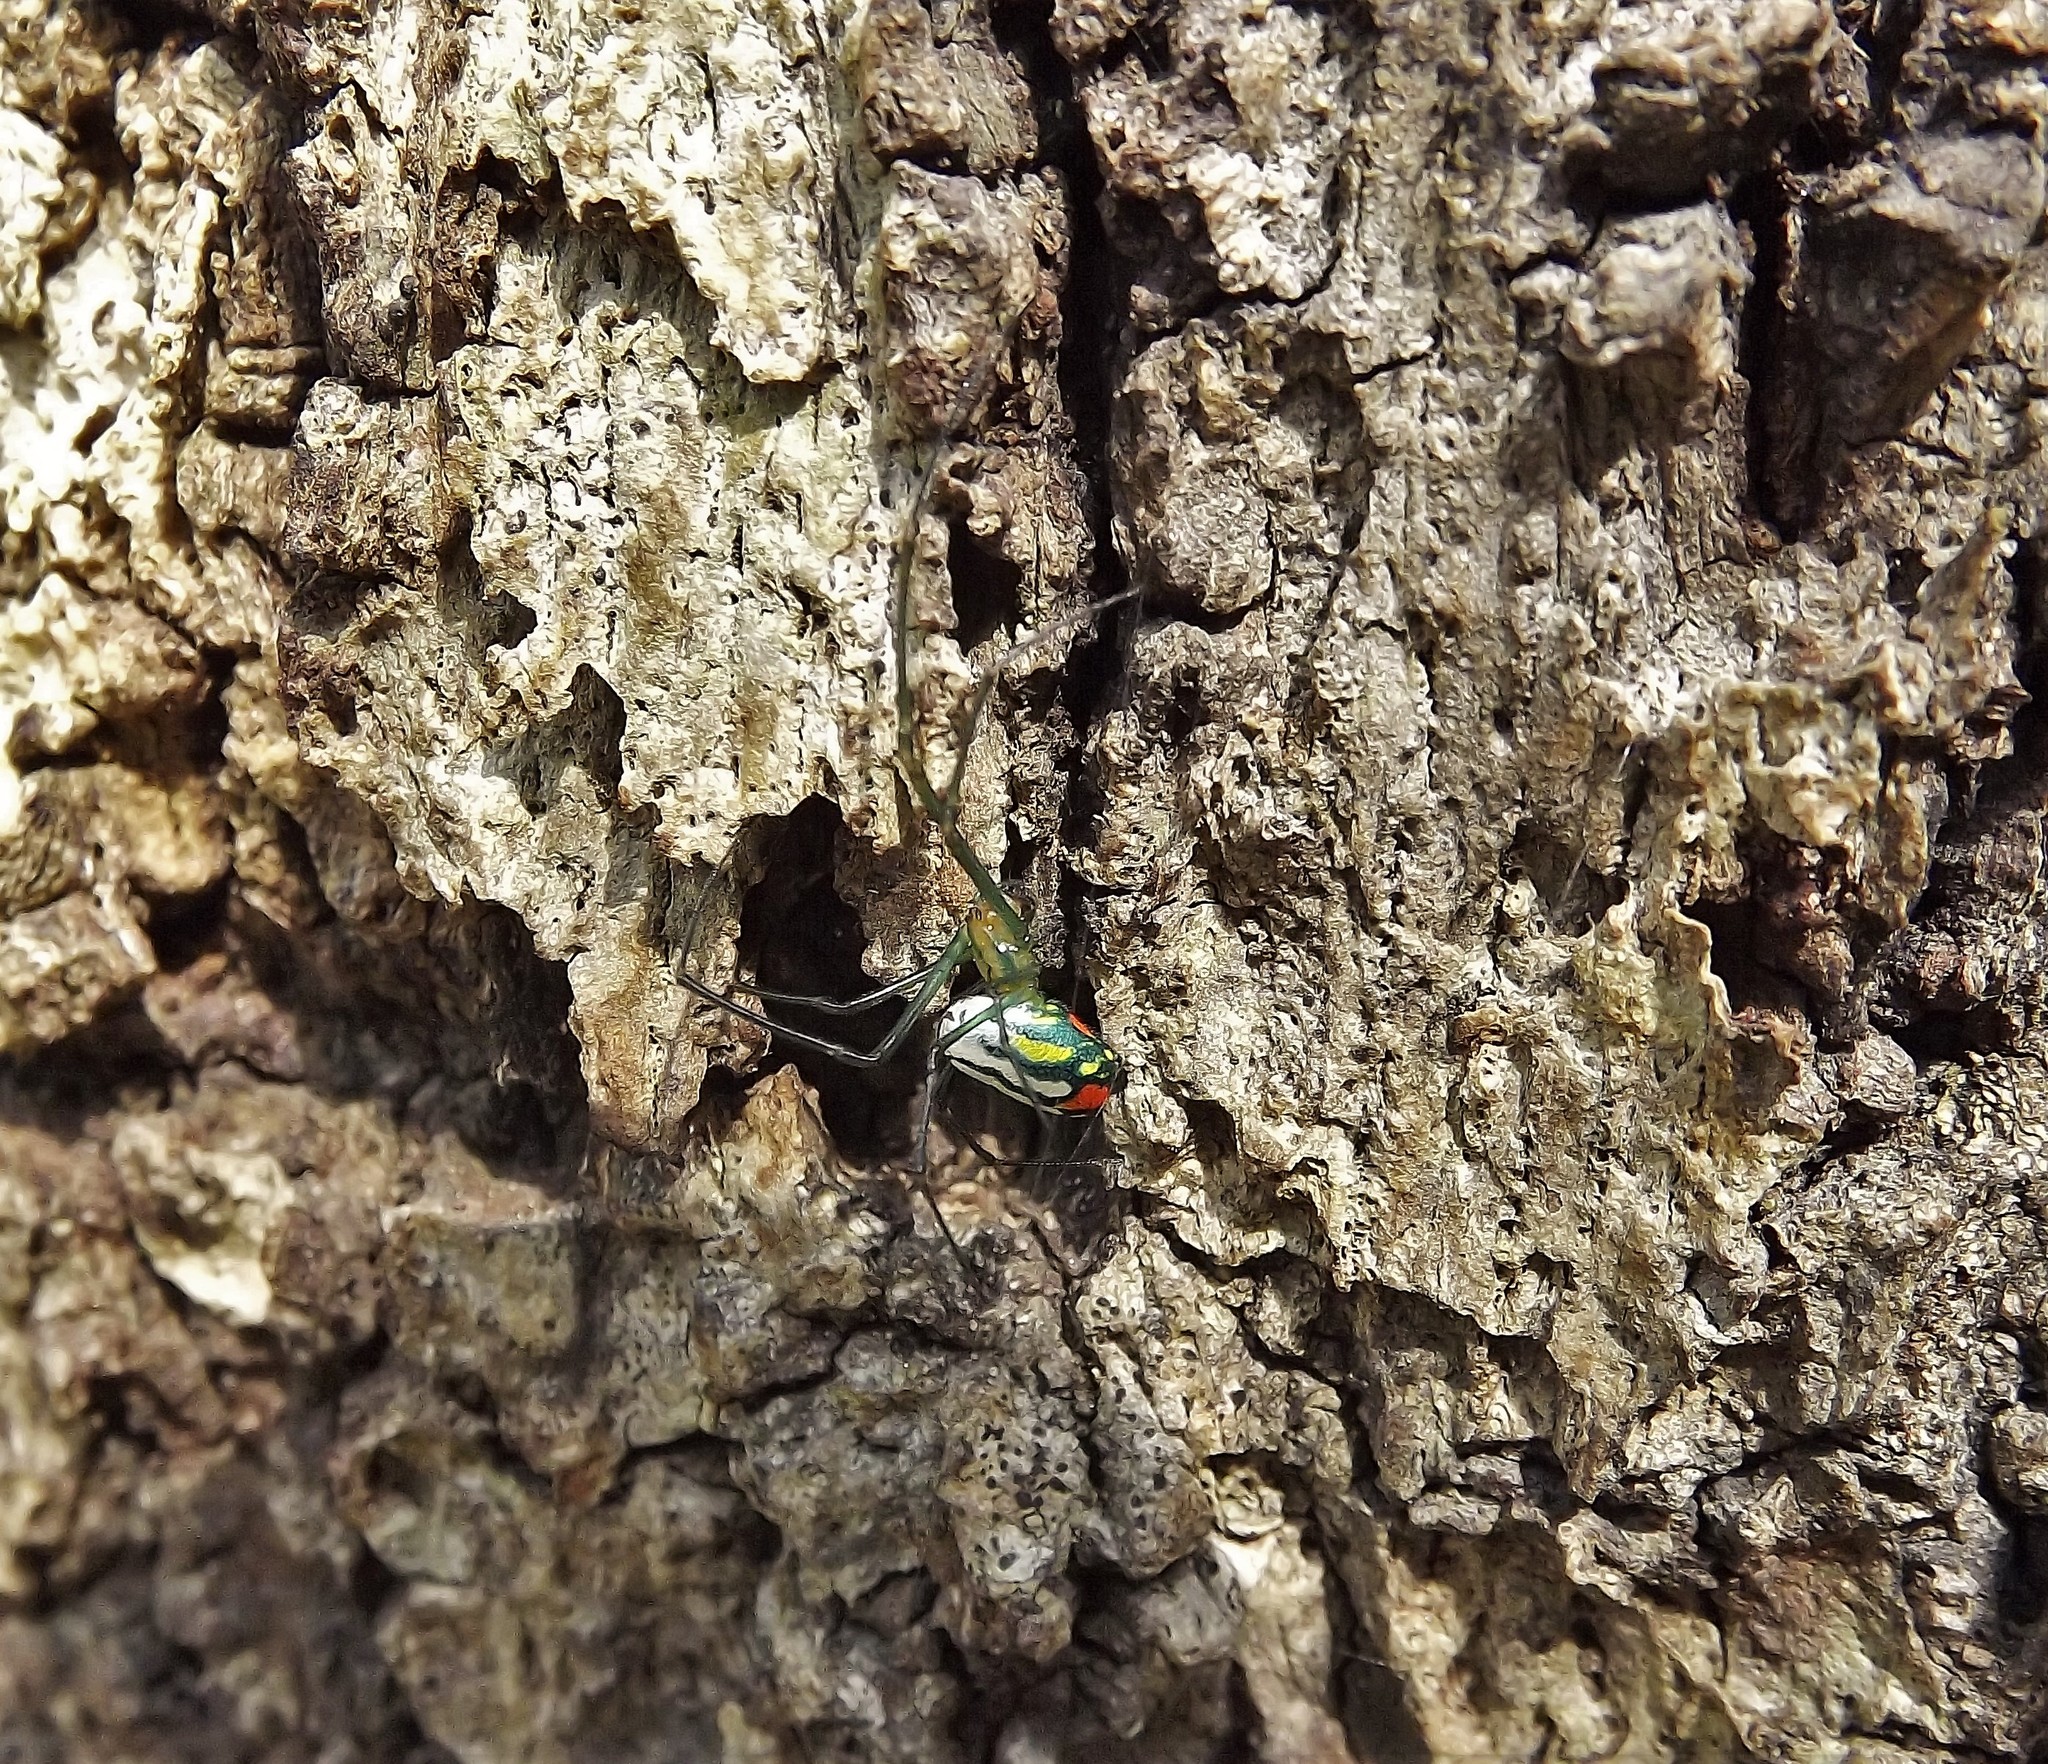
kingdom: Animalia
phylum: Arthropoda
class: Arachnida
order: Araneae
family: Tetragnathidae
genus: Leucauge
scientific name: Leucauge argyrobapta
